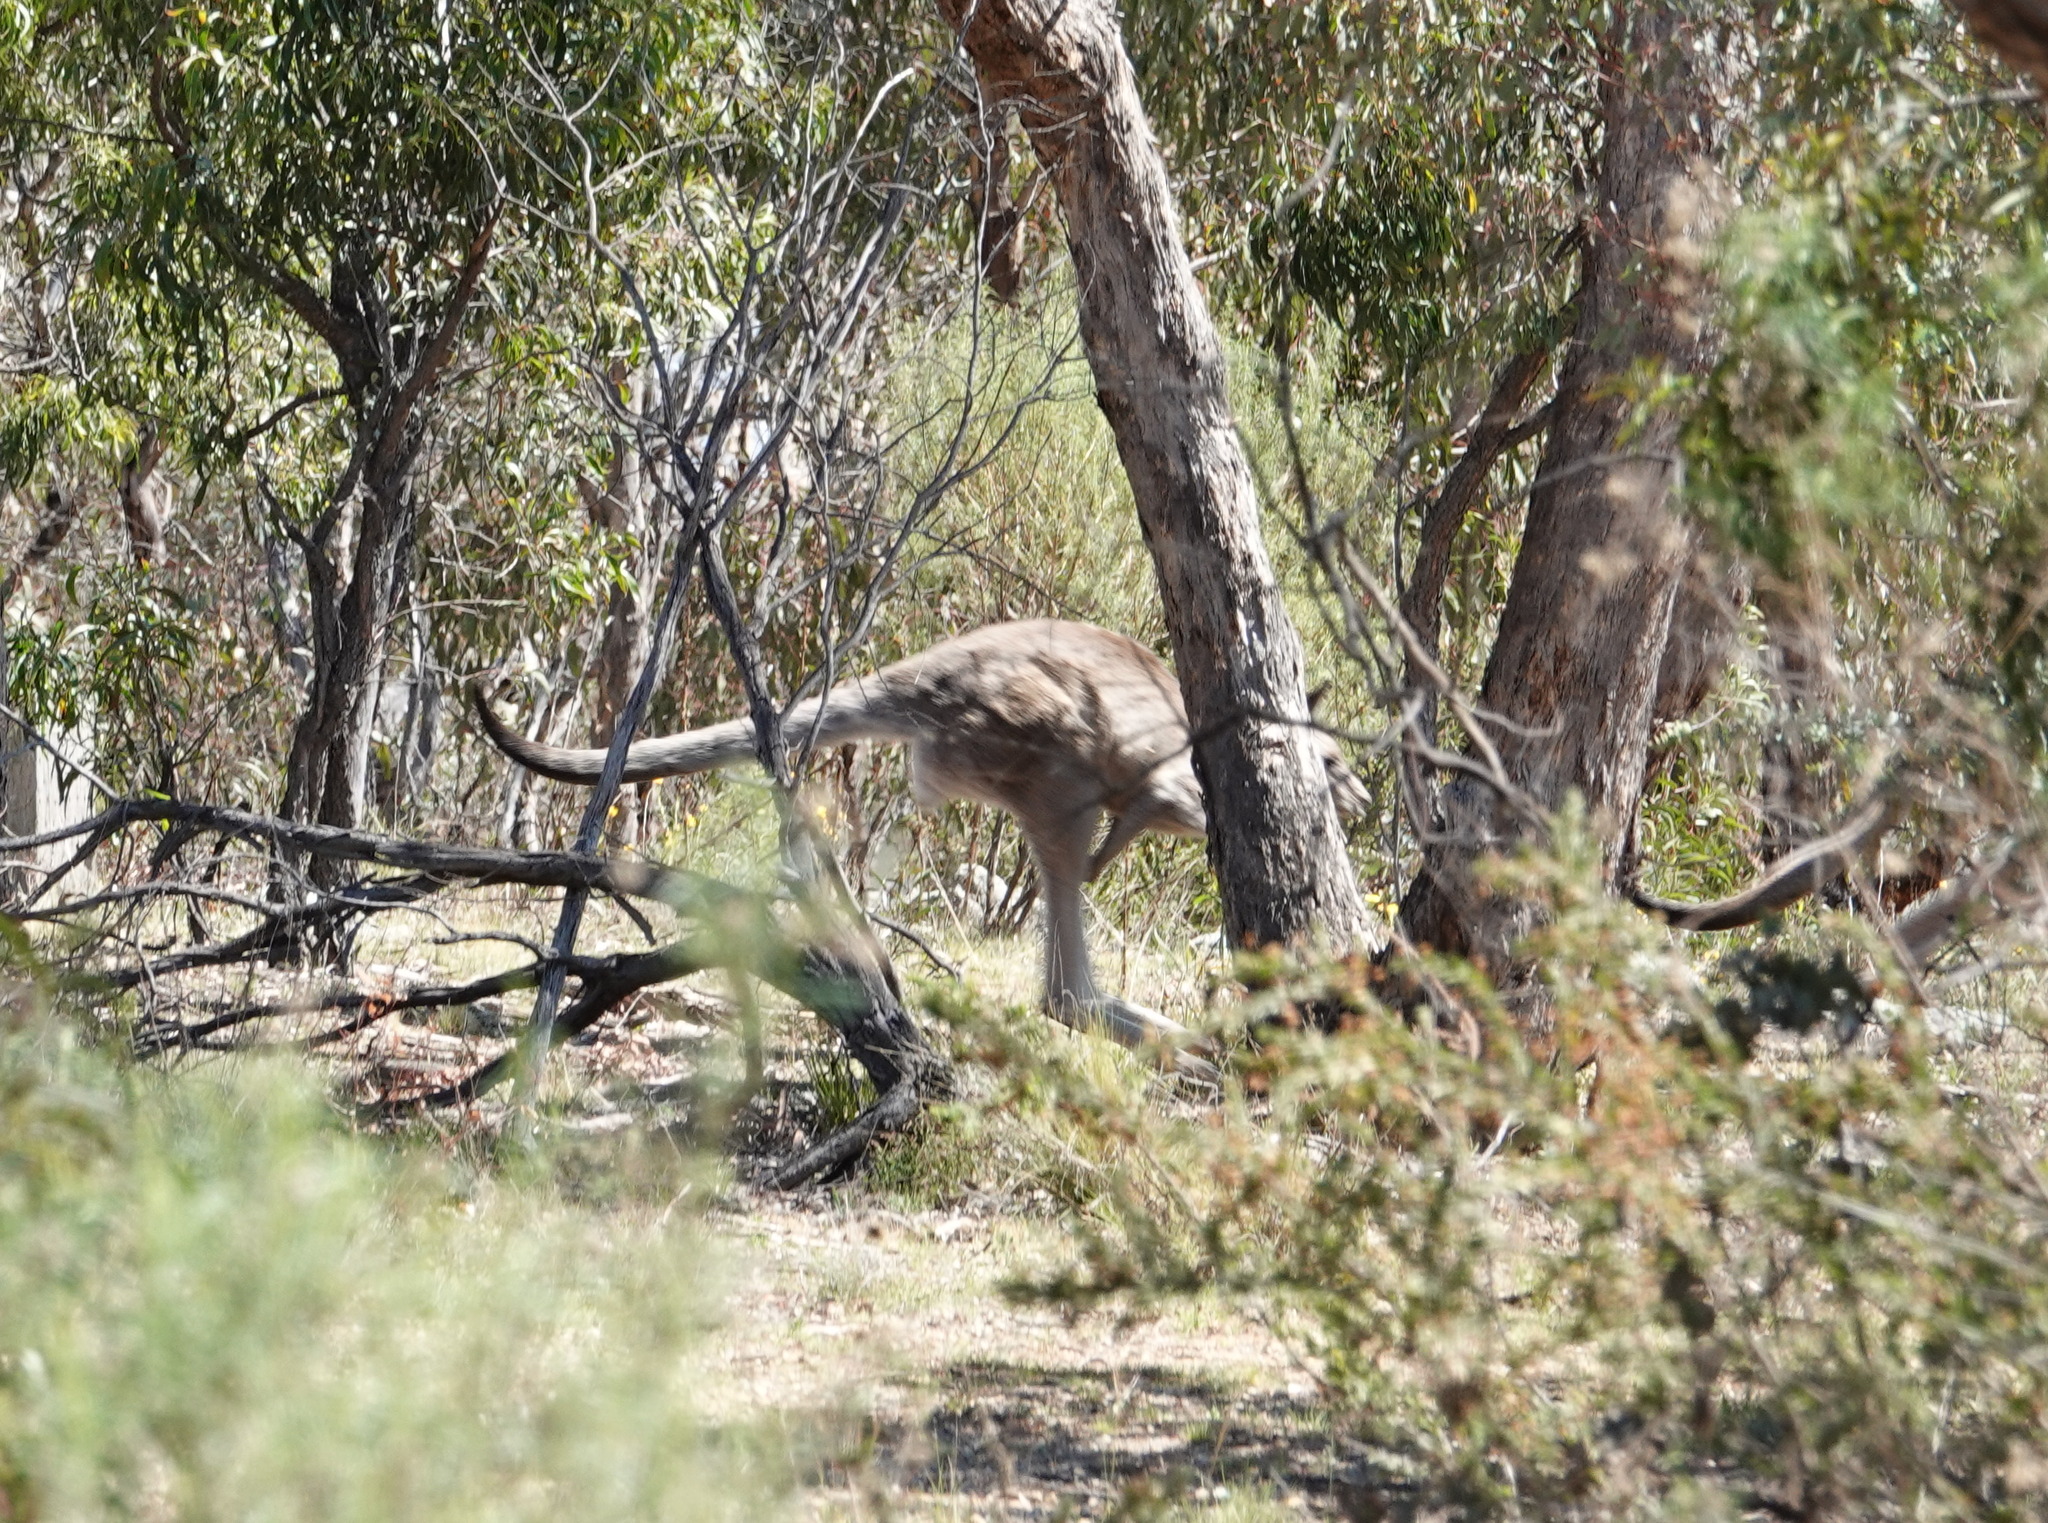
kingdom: Animalia
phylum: Chordata
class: Mammalia
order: Diprotodontia
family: Macropodidae
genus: Macropus
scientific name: Macropus giganteus
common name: Eastern grey kangaroo
